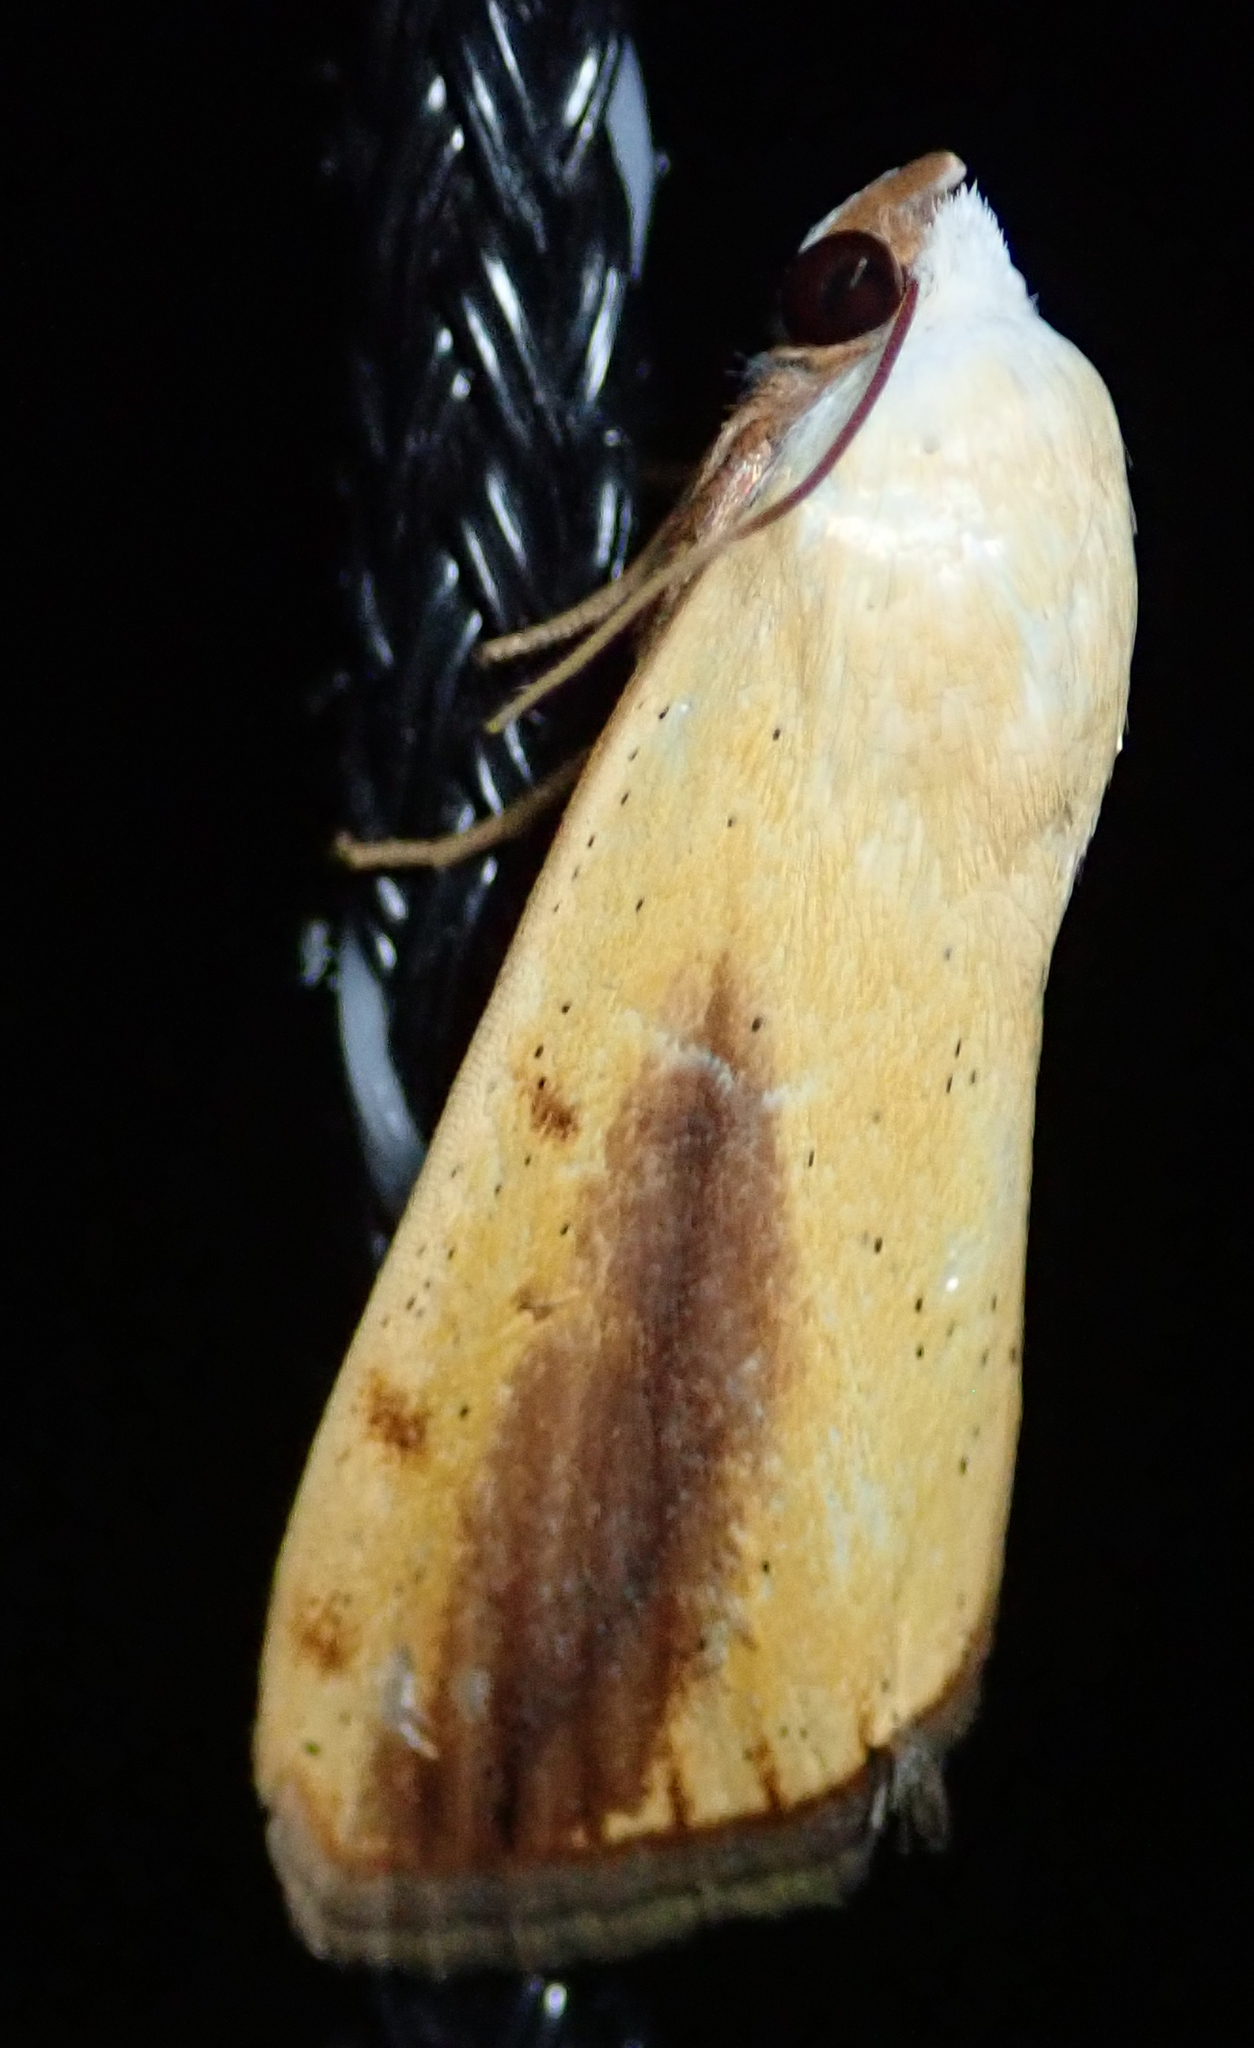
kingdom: Animalia
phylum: Arthropoda
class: Insecta
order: Lepidoptera
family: Nolidae
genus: Pardoxia
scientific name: Pardoxia graellsii
